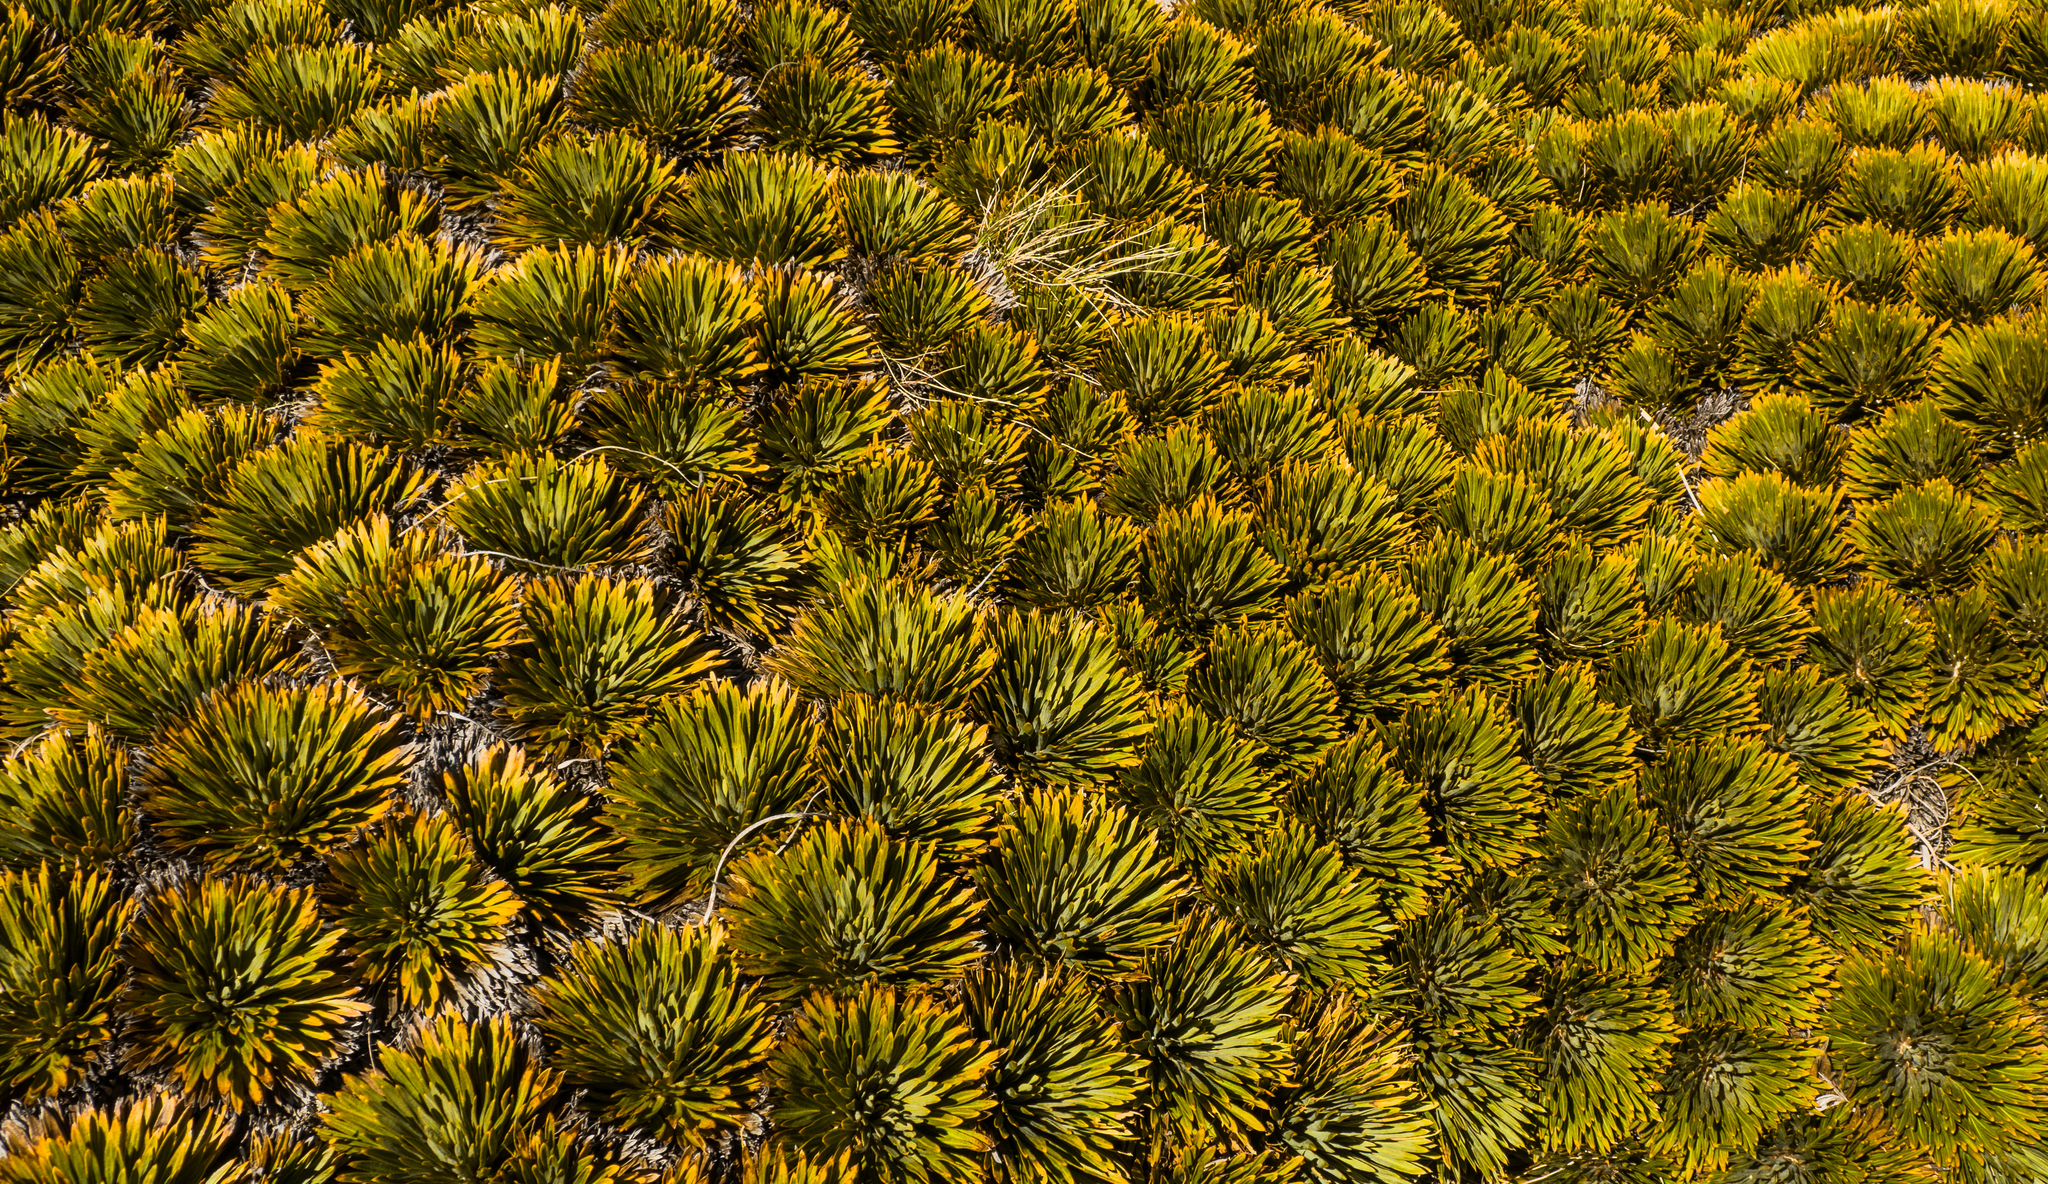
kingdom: Plantae
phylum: Tracheophyta
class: Magnoliopsida
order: Apiales
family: Apiaceae
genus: Aciphylla
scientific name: Aciphylla crosby-smithii
